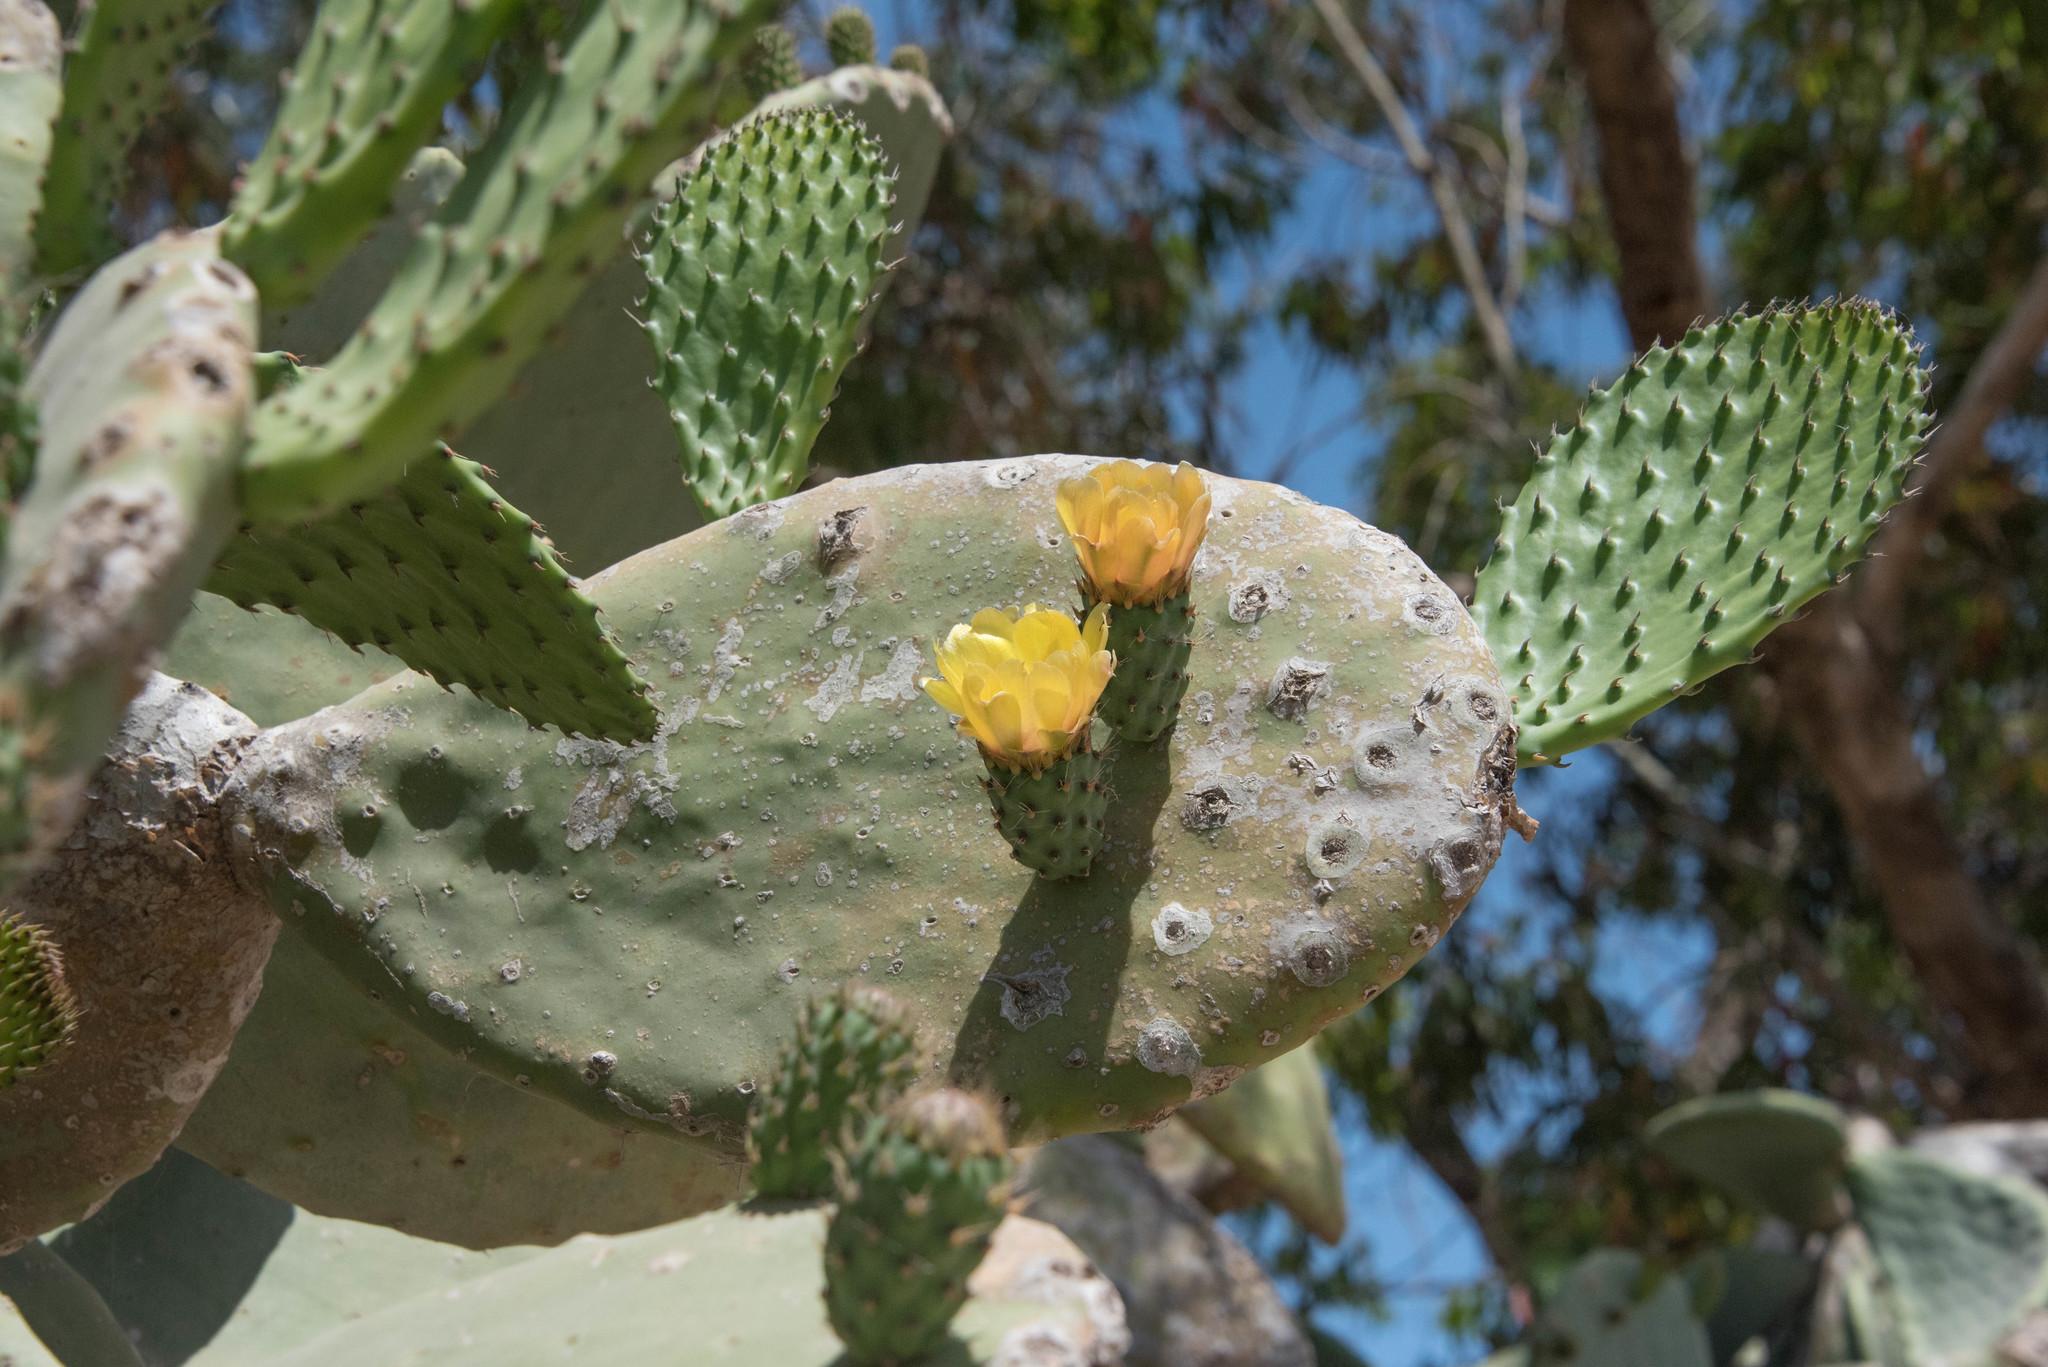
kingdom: Plantae
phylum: Tracheophyta
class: Magnoliopsida
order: Caryophyllales
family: Cactaceae
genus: Opuntia
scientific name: Opuntia ficus-indica
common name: Barbary fig
